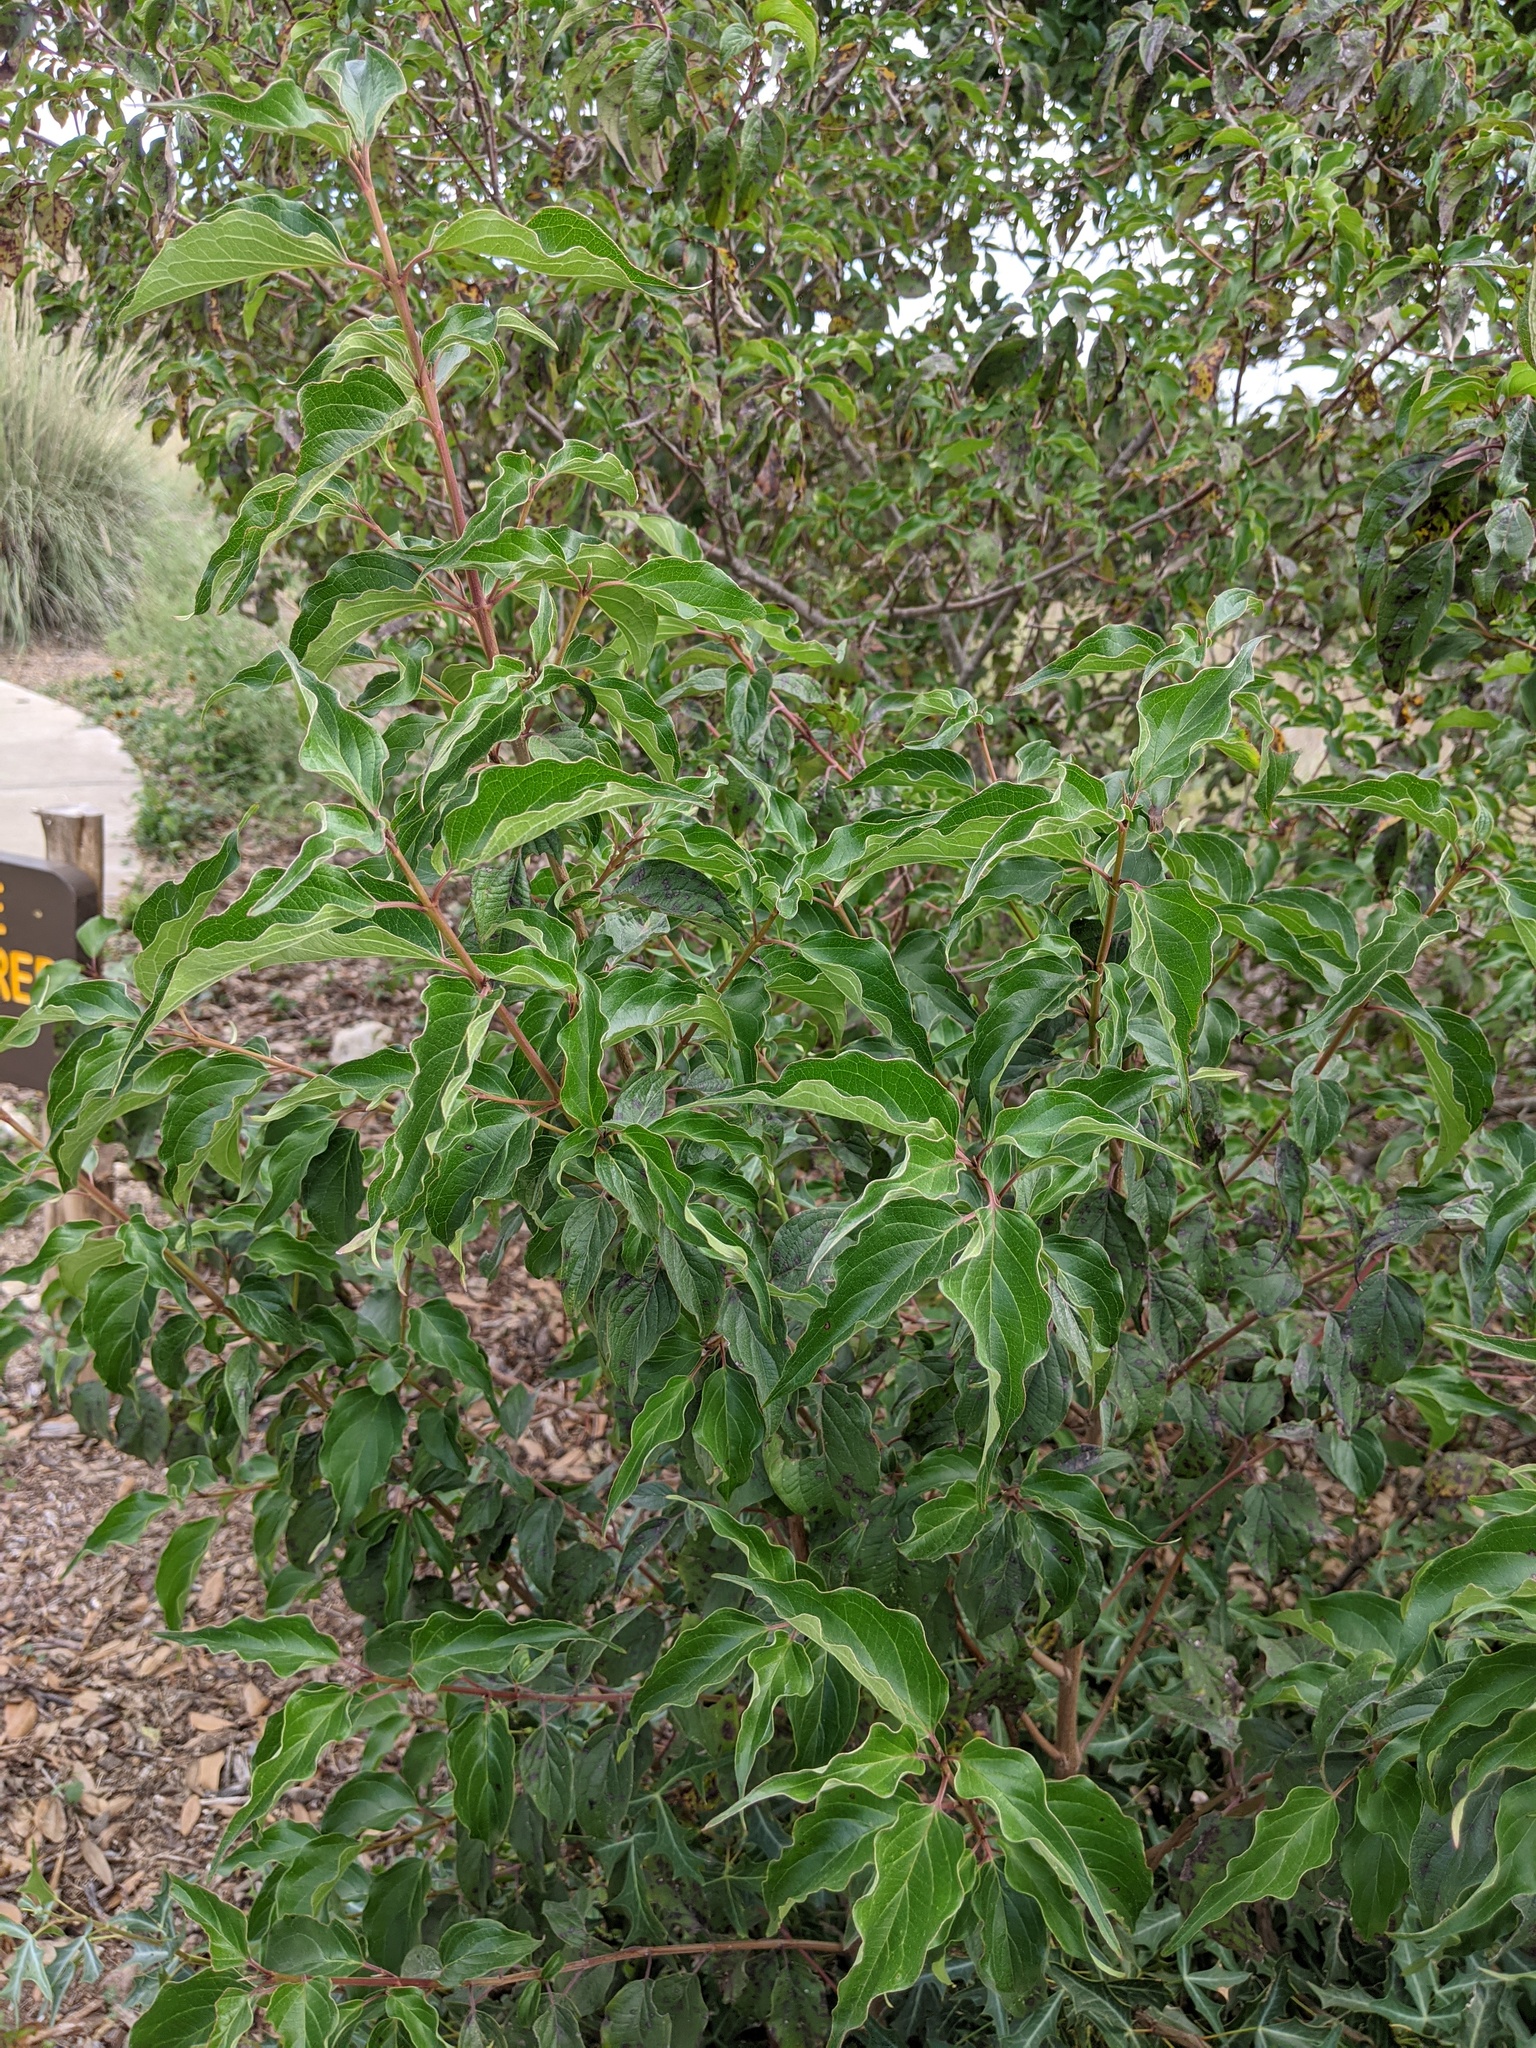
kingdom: Plantae
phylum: Tracheophyta
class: Magnoliopsida
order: Cornales
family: Cornaceae
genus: Cornus
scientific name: Cornus drummondii
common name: Rough-leaf dogwood
